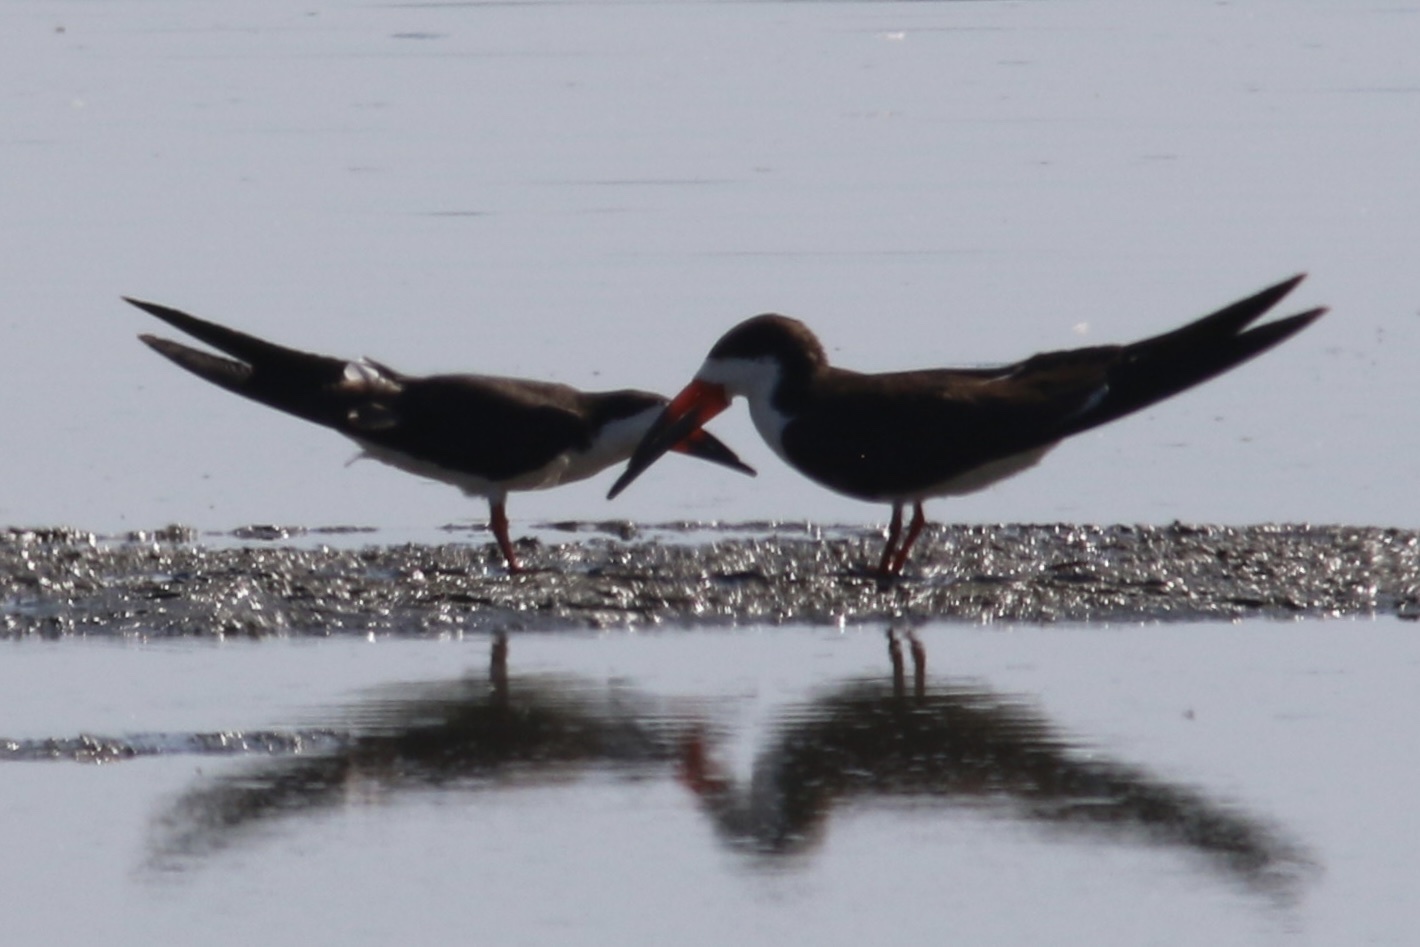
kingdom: Animalia
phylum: Chordata
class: Aves
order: Charadriiformes
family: Laridae
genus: Rynchops
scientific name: Rynchops niger
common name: Black skimmer
